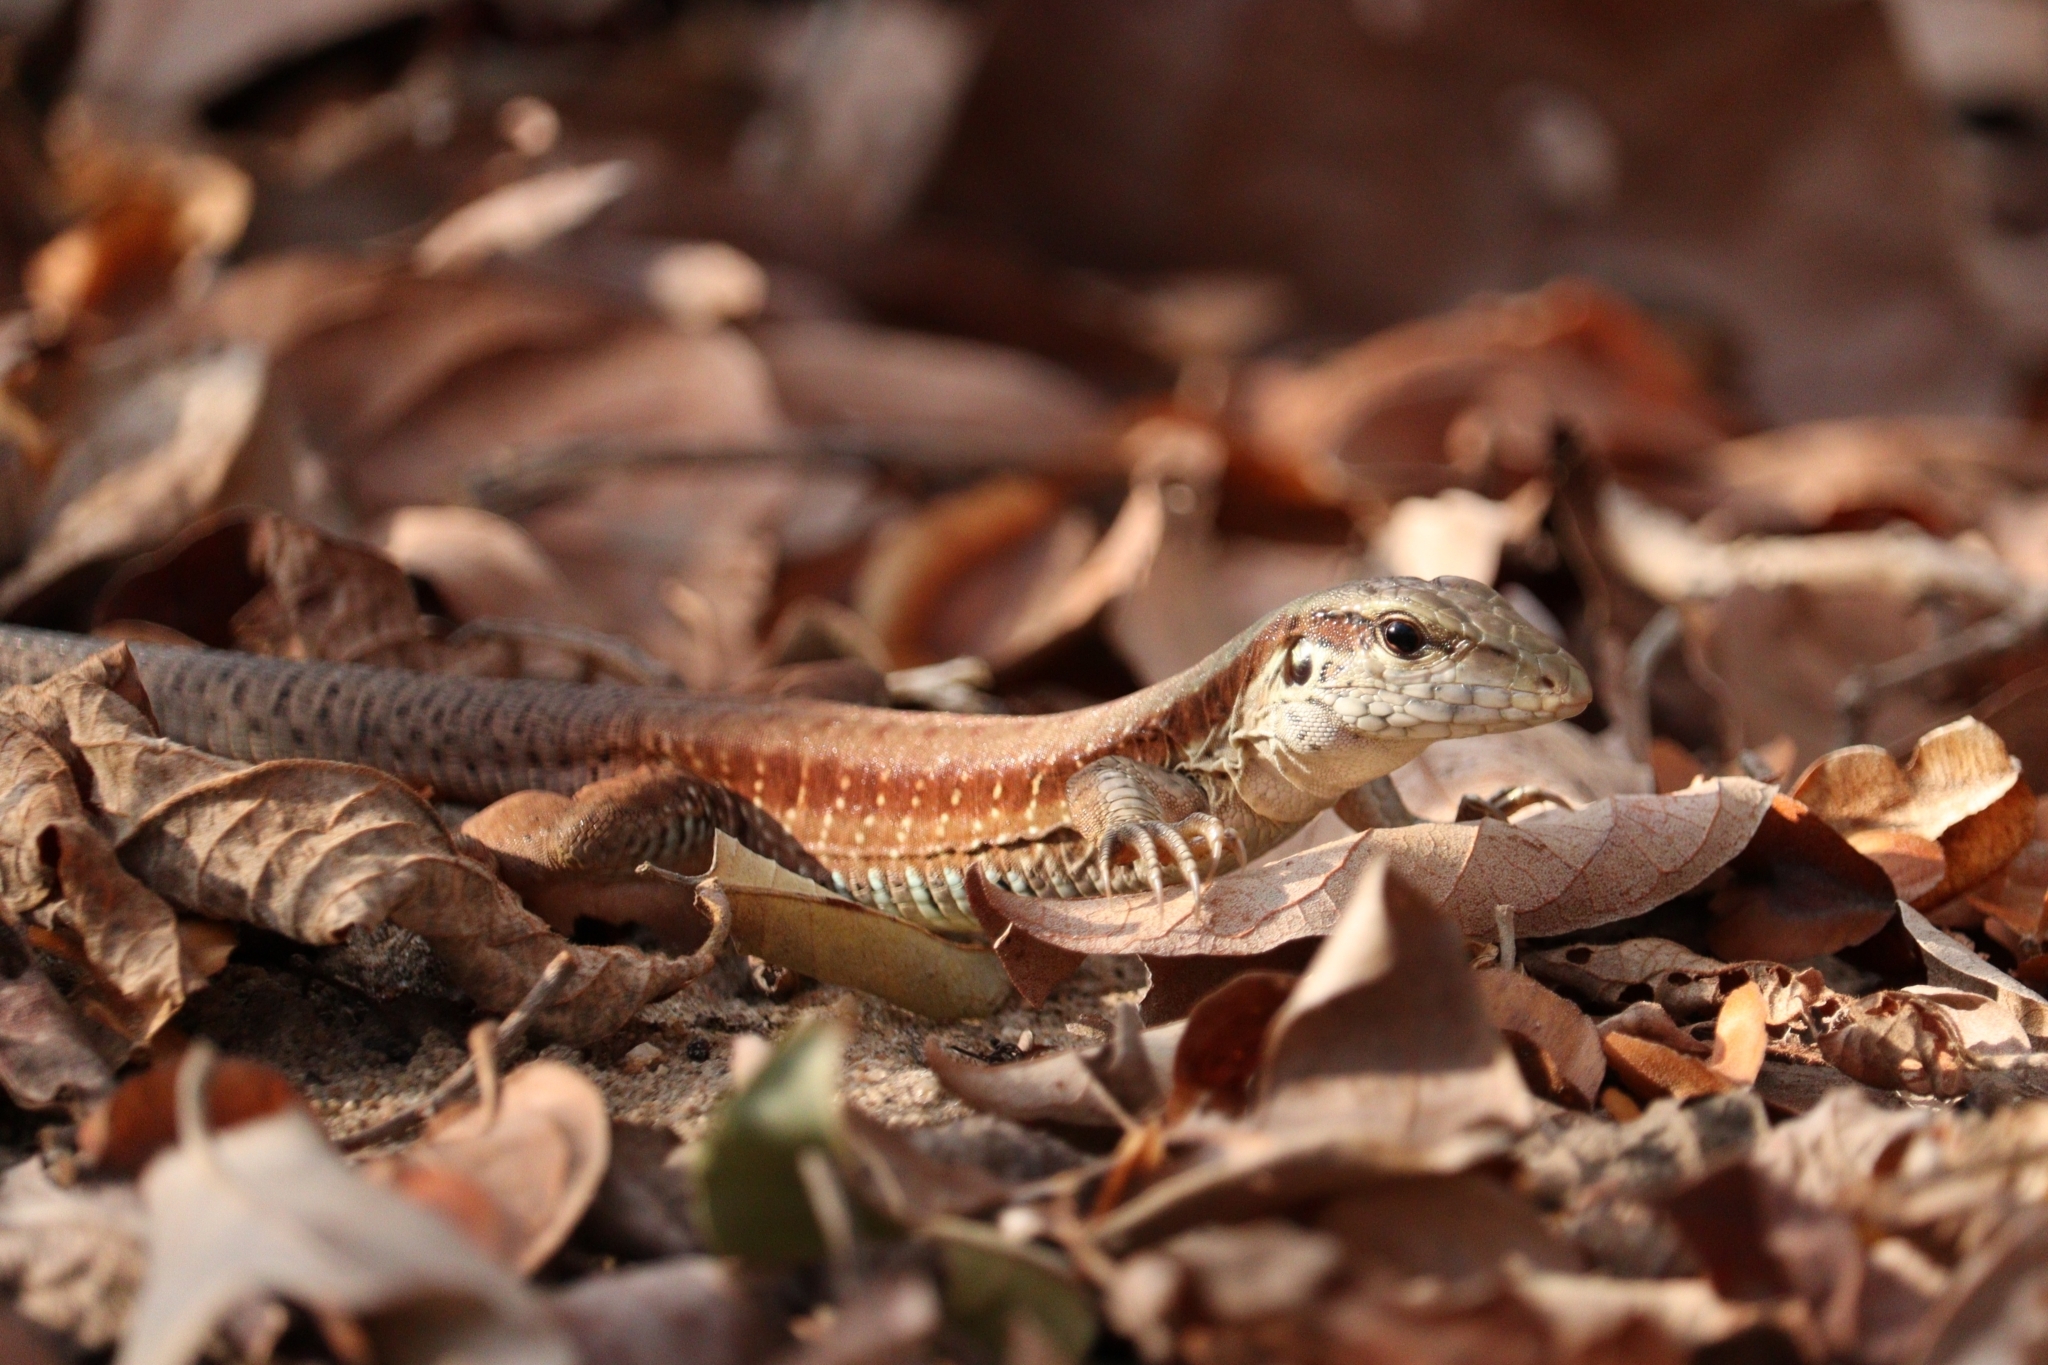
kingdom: Animalia
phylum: Chordata
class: Squamata
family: Teiidae
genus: Ameiva
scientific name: Ameiva ameiva
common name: Giant ameiva
